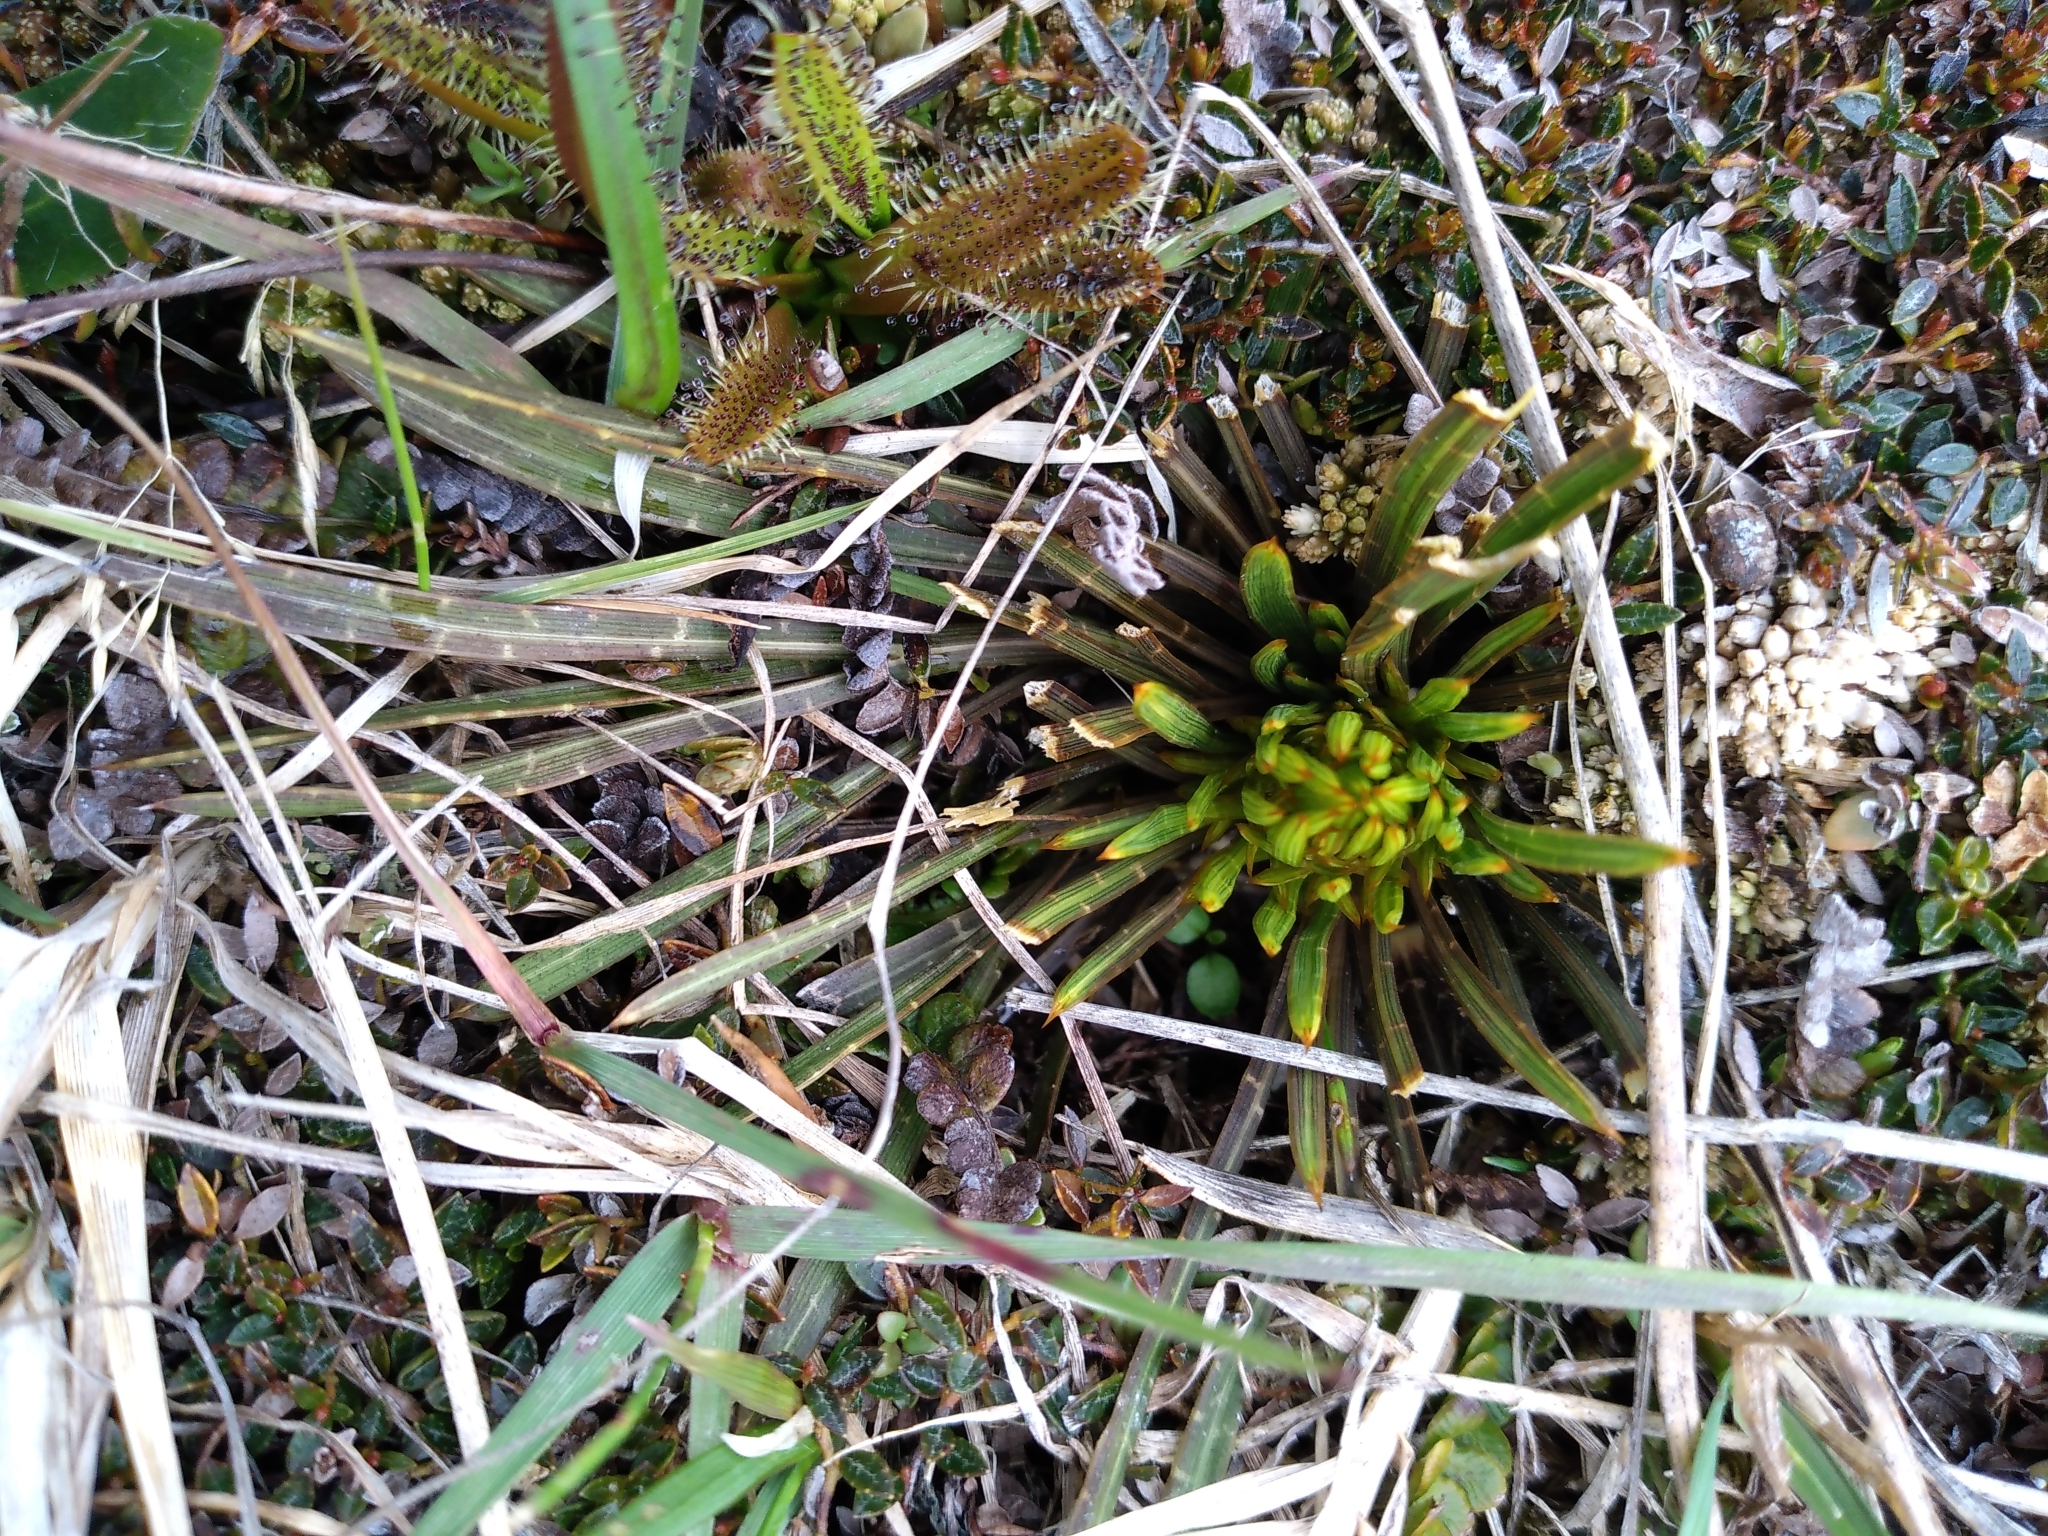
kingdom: Plantae
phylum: Tracheophyta
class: Magnoliopsida
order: Apiales
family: Apiaceae
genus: Aciphylla
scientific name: Aciphylla verticillata
